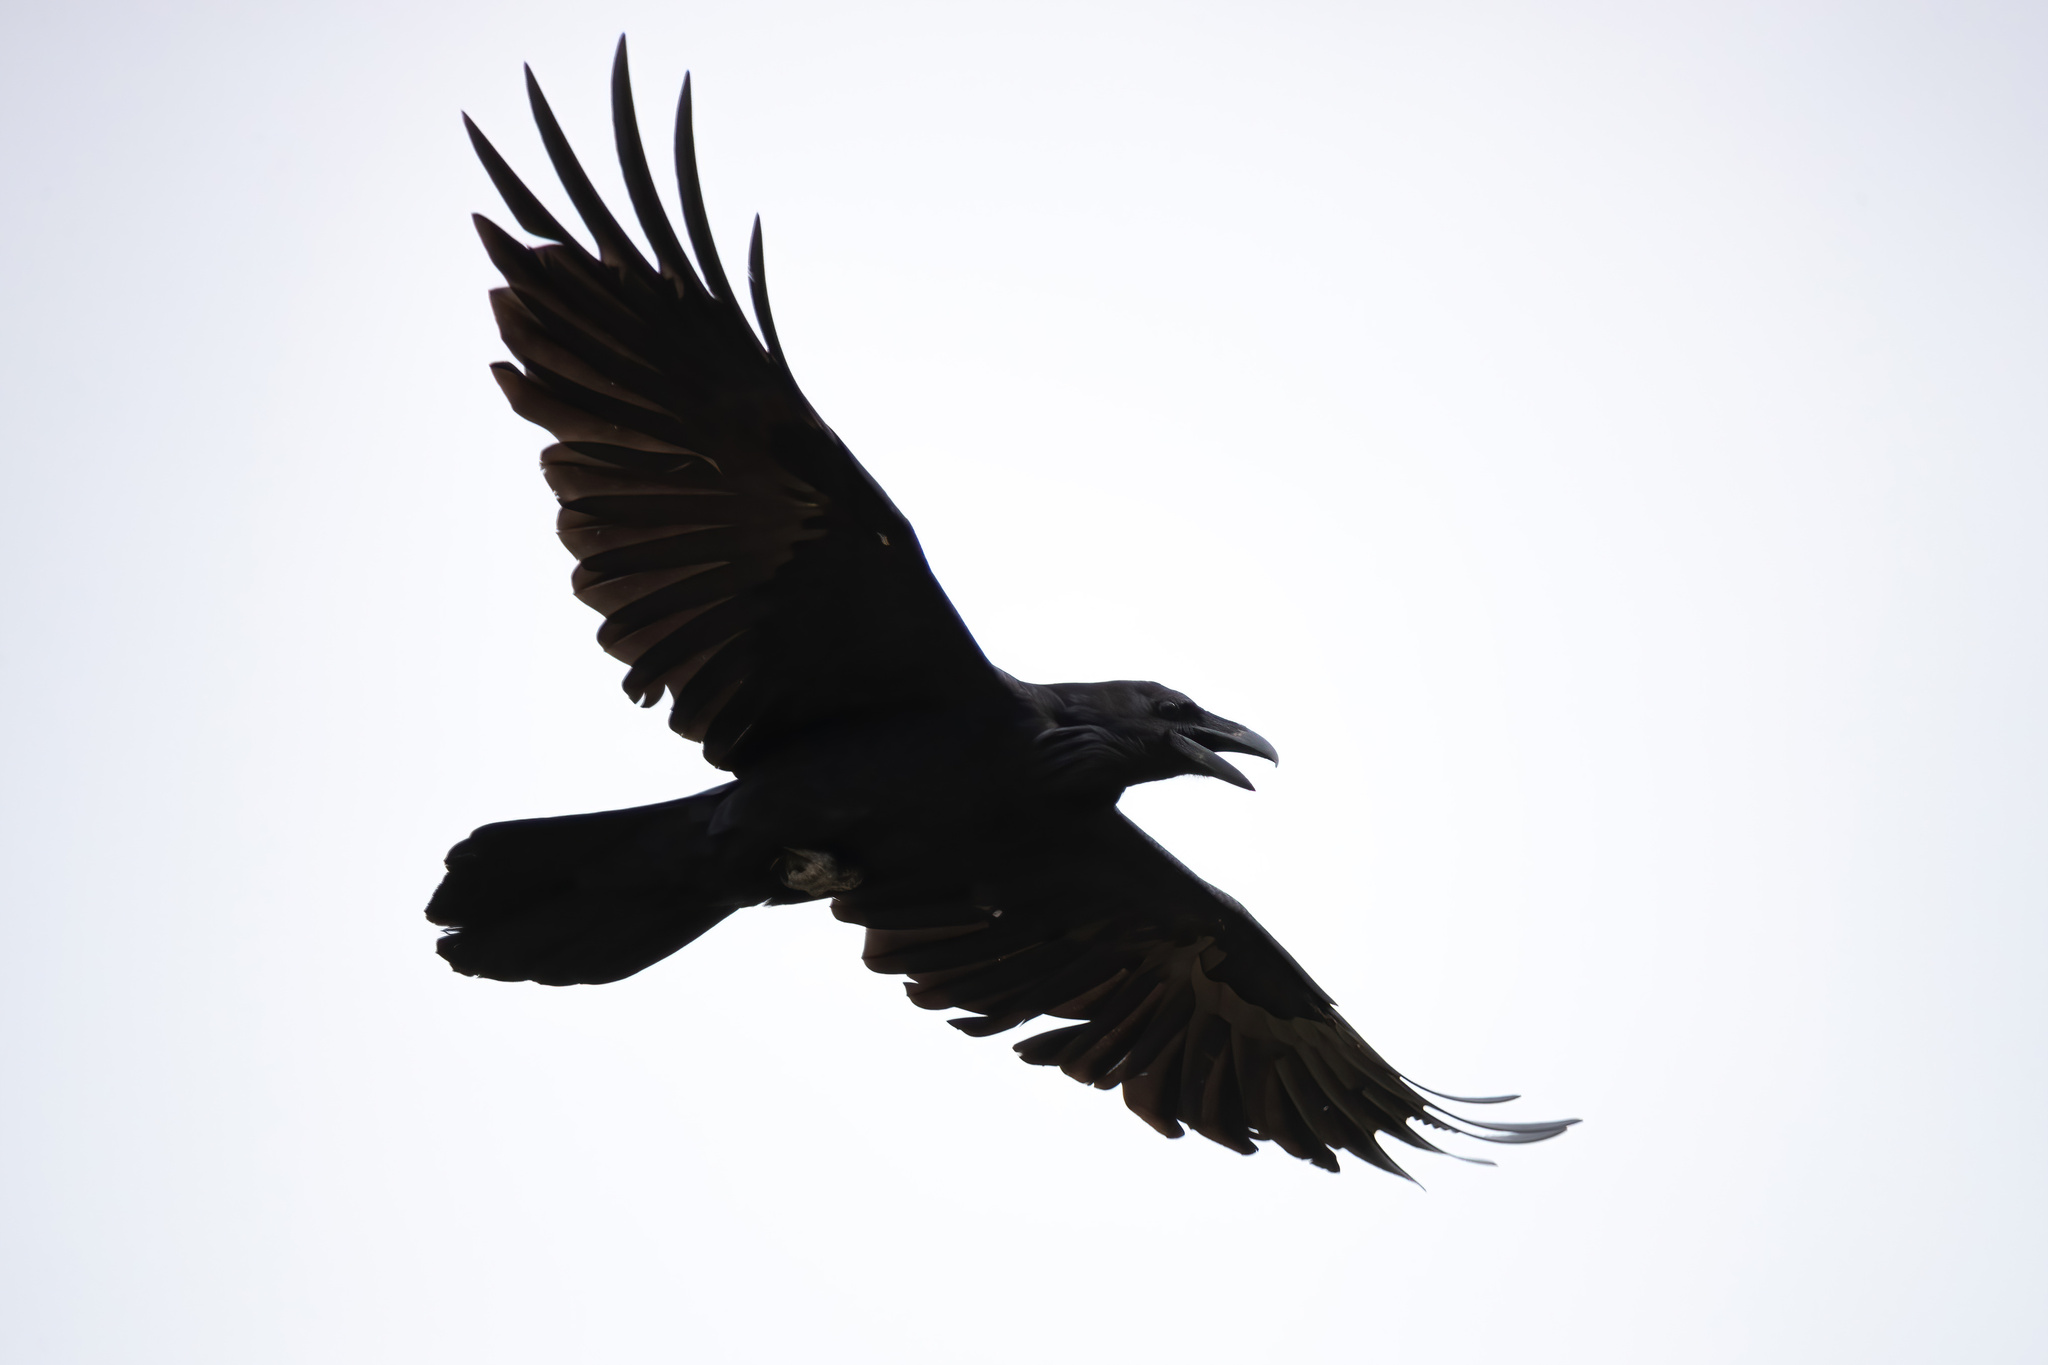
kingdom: Animalia
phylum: Chordata
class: Aves
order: Passeriformes
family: Corvidae
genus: Corvus
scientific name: Corvus corax
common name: Common raven
